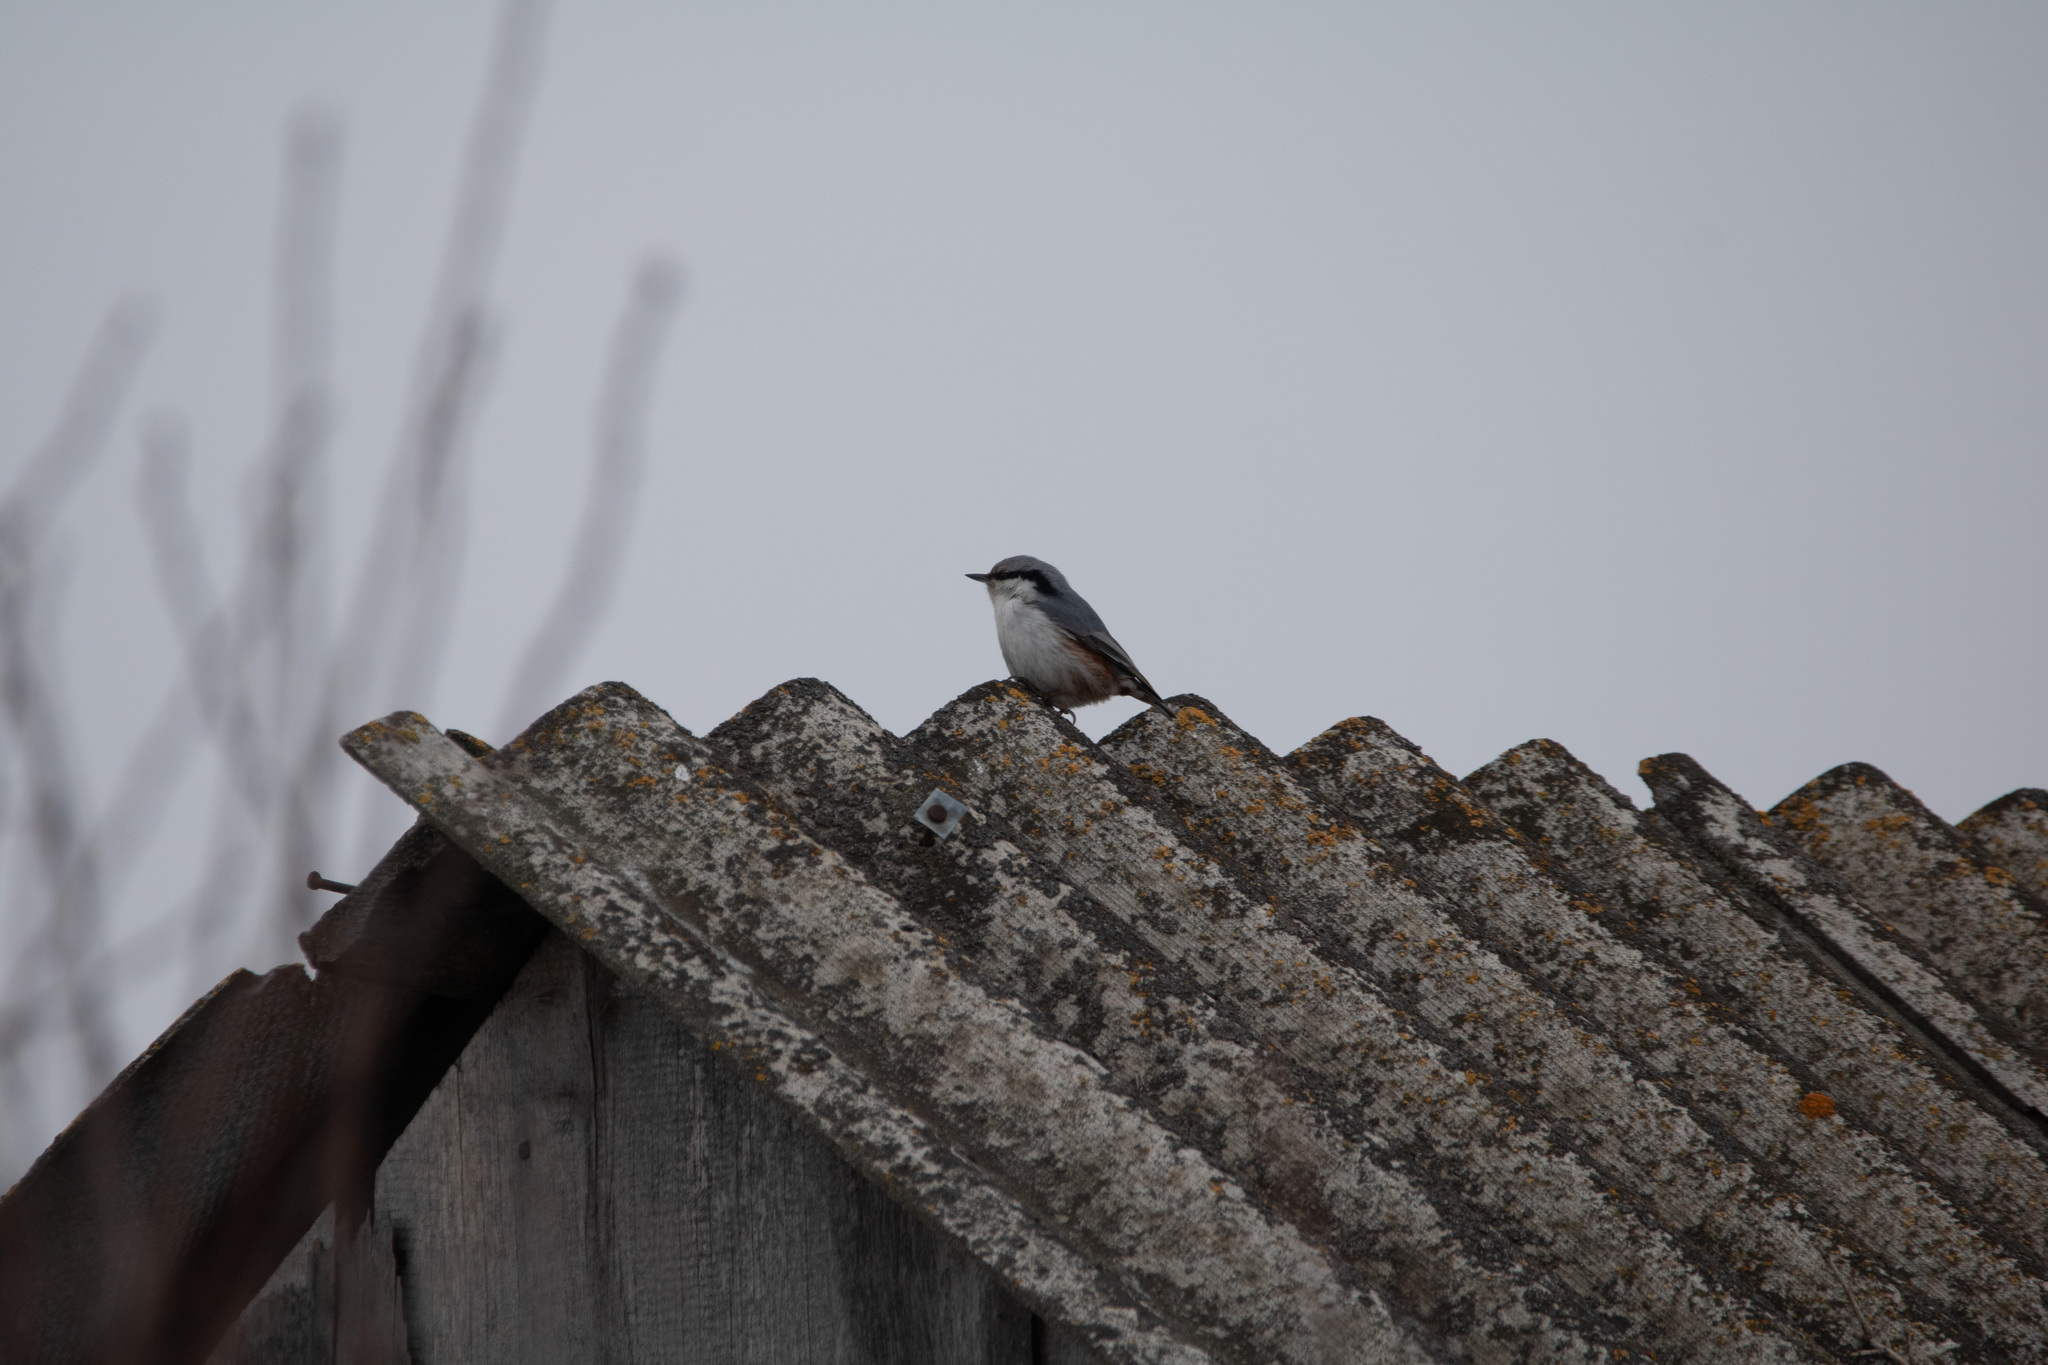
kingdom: Animalia
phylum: Chordata
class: Aves
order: Passeriformes
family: Sittidae
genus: Sitta
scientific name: Sitta europaea
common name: Eurasian nuthatch
